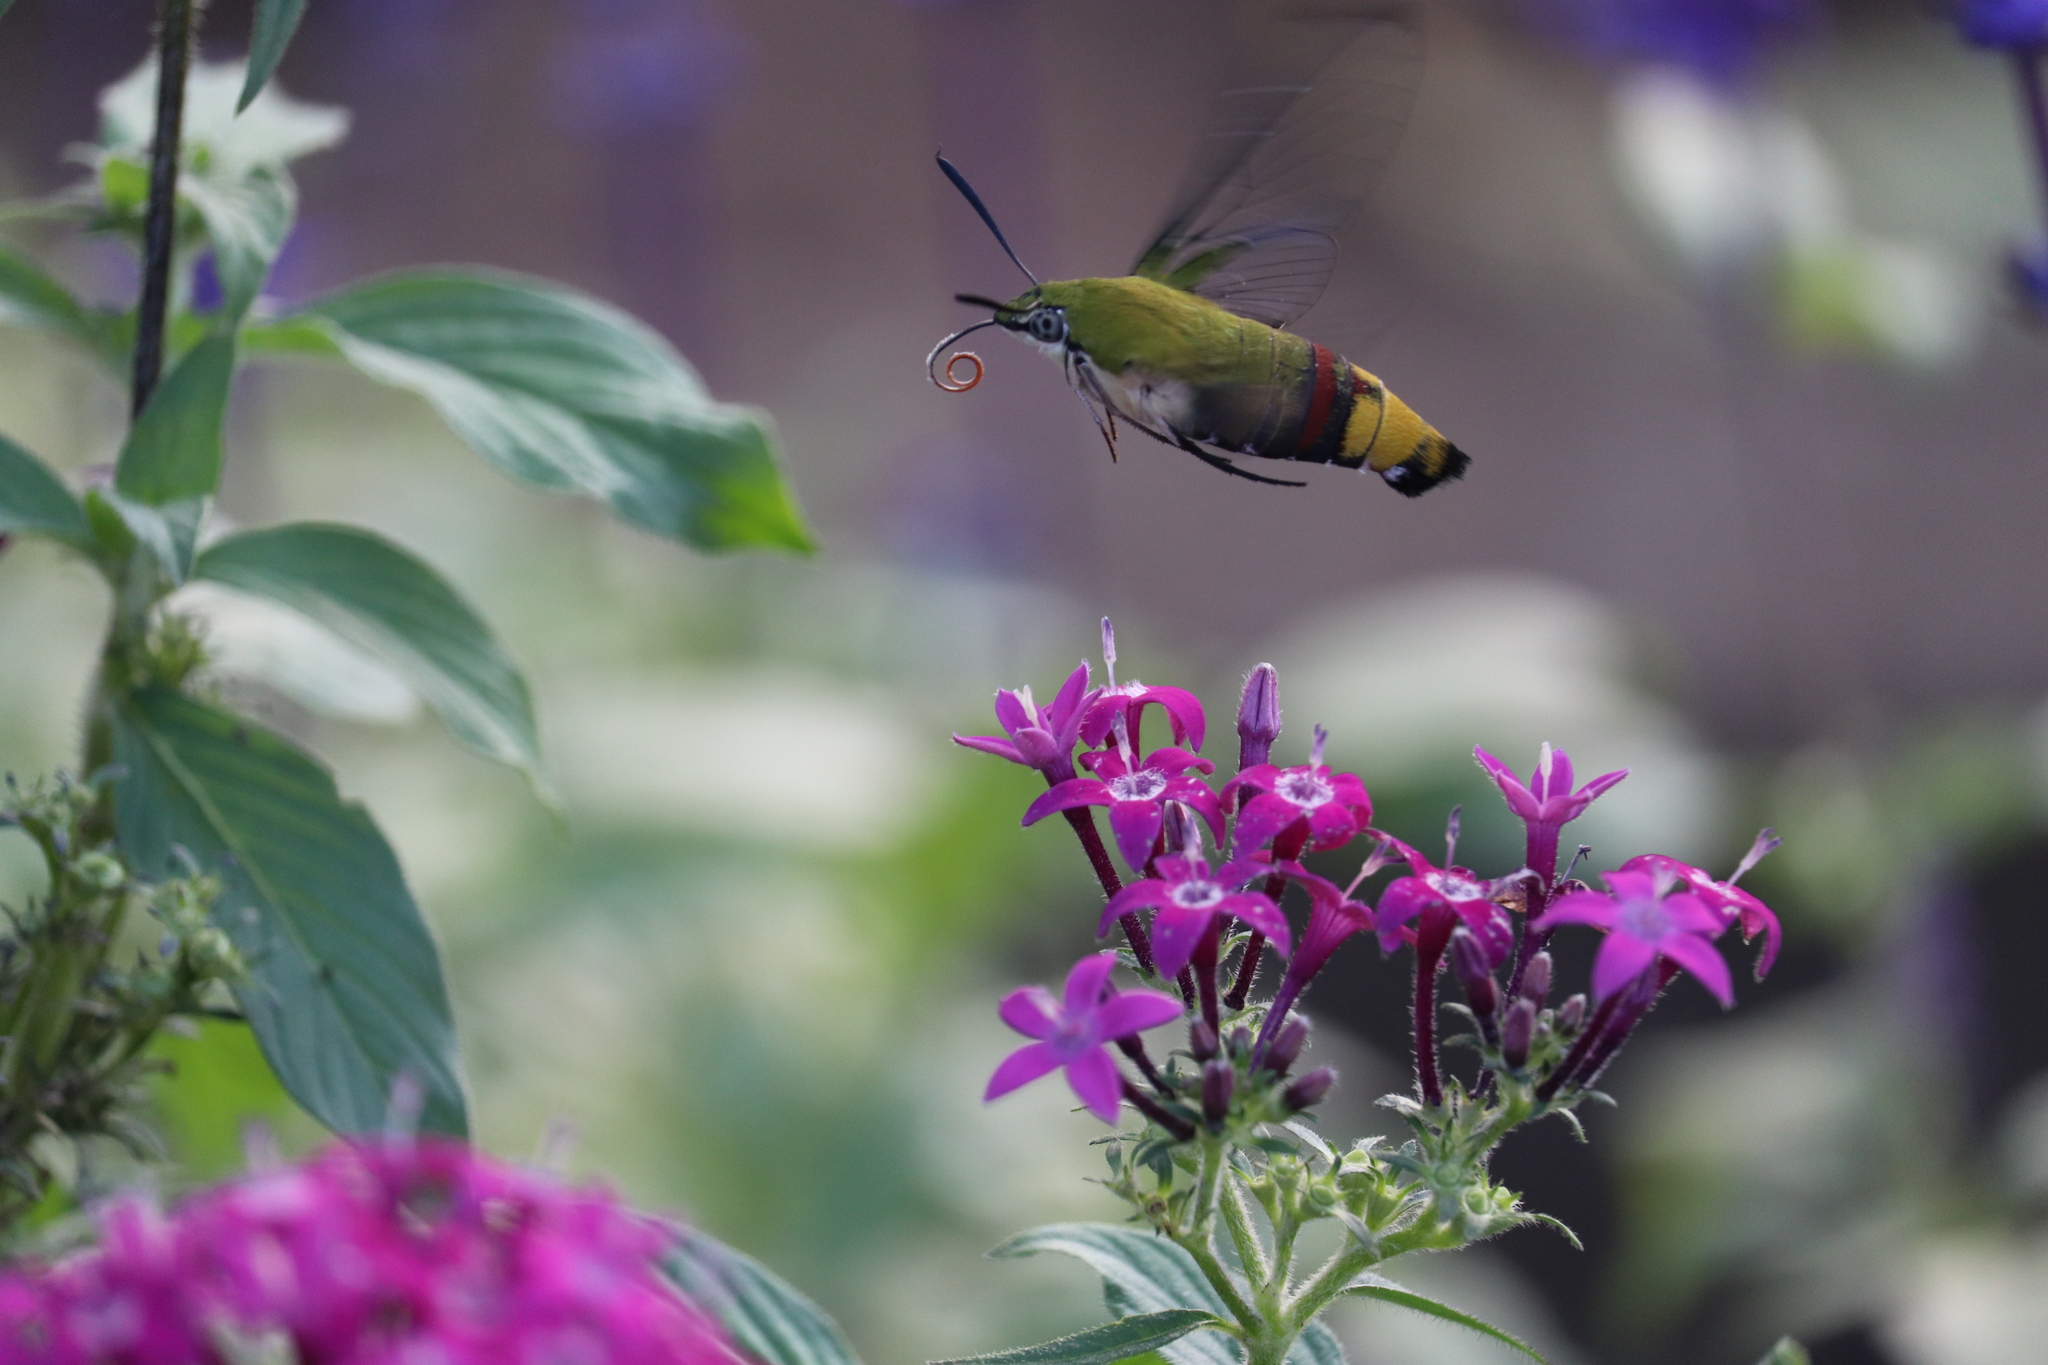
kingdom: Animalia
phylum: Arthropoda
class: Insecta
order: Lepidoptera
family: Sphingidae
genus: Cephonodes
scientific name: Cephonodes hylas
